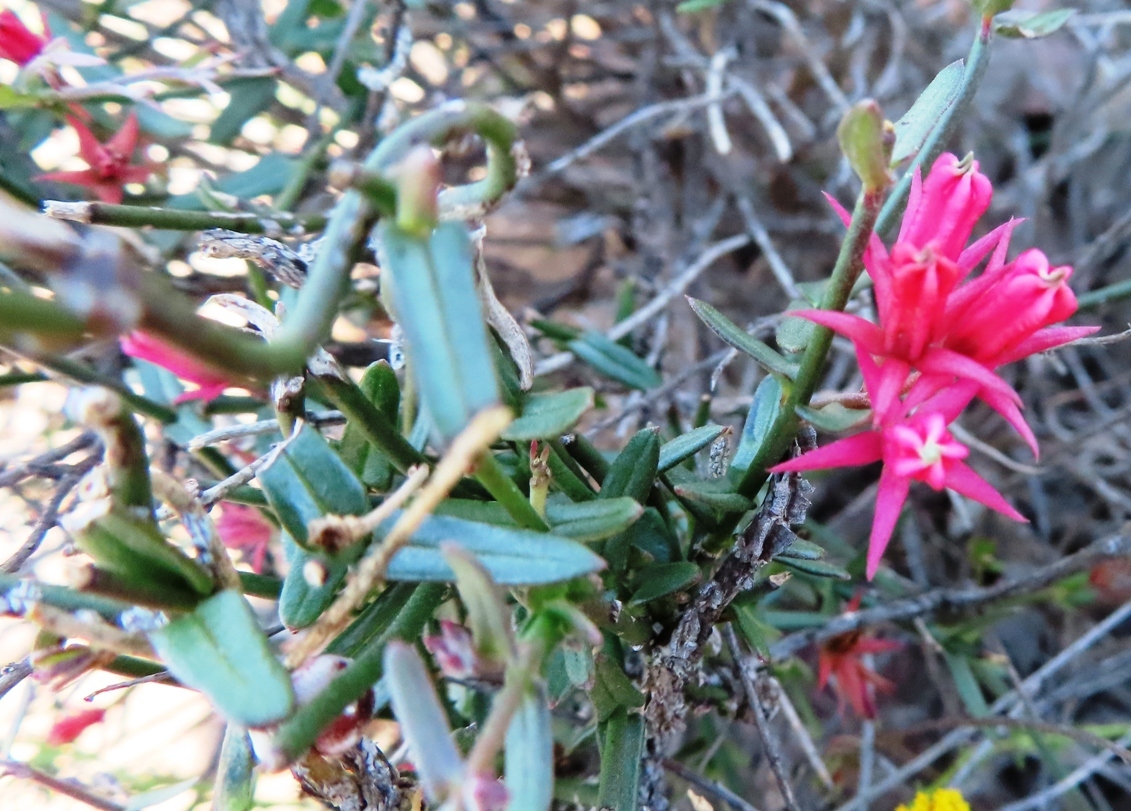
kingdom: Plantae
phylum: Tracheophyta
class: Magnoliopsida
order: Gentianales
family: Apocynaceae
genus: Microloma
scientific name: Microloma sagittatum
